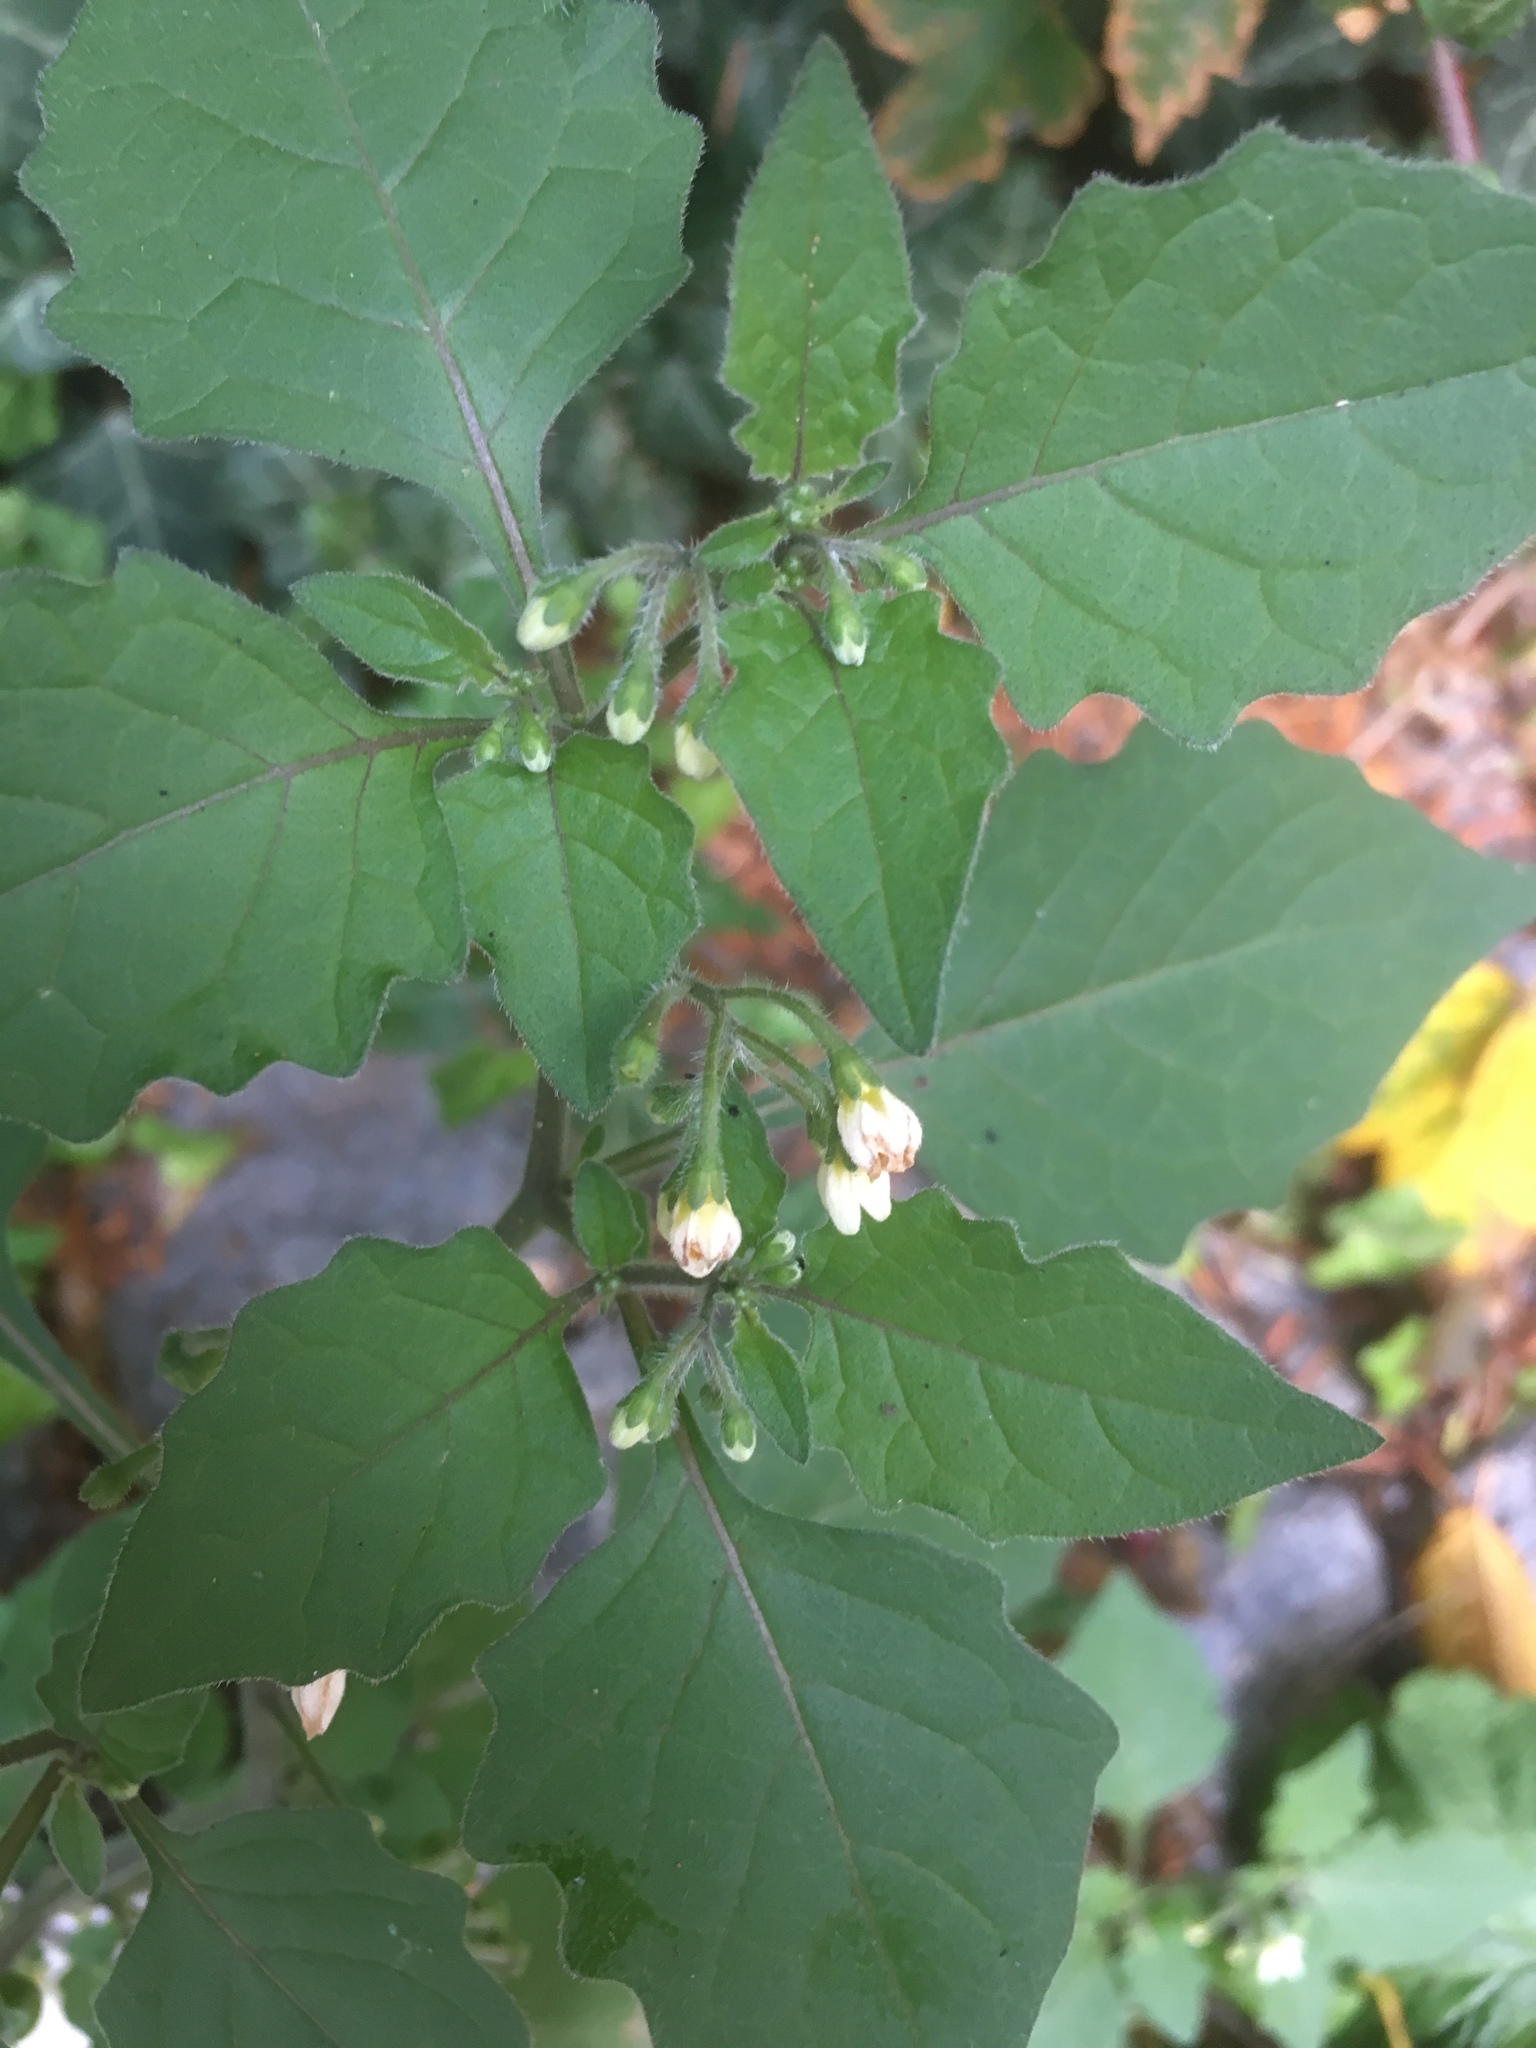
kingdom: Plantae
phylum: Tracheophyta
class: Magnoliopsida
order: Solanales
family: Solanaceae
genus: Solanum
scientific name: Solanum nigrum
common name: Black nightshade
